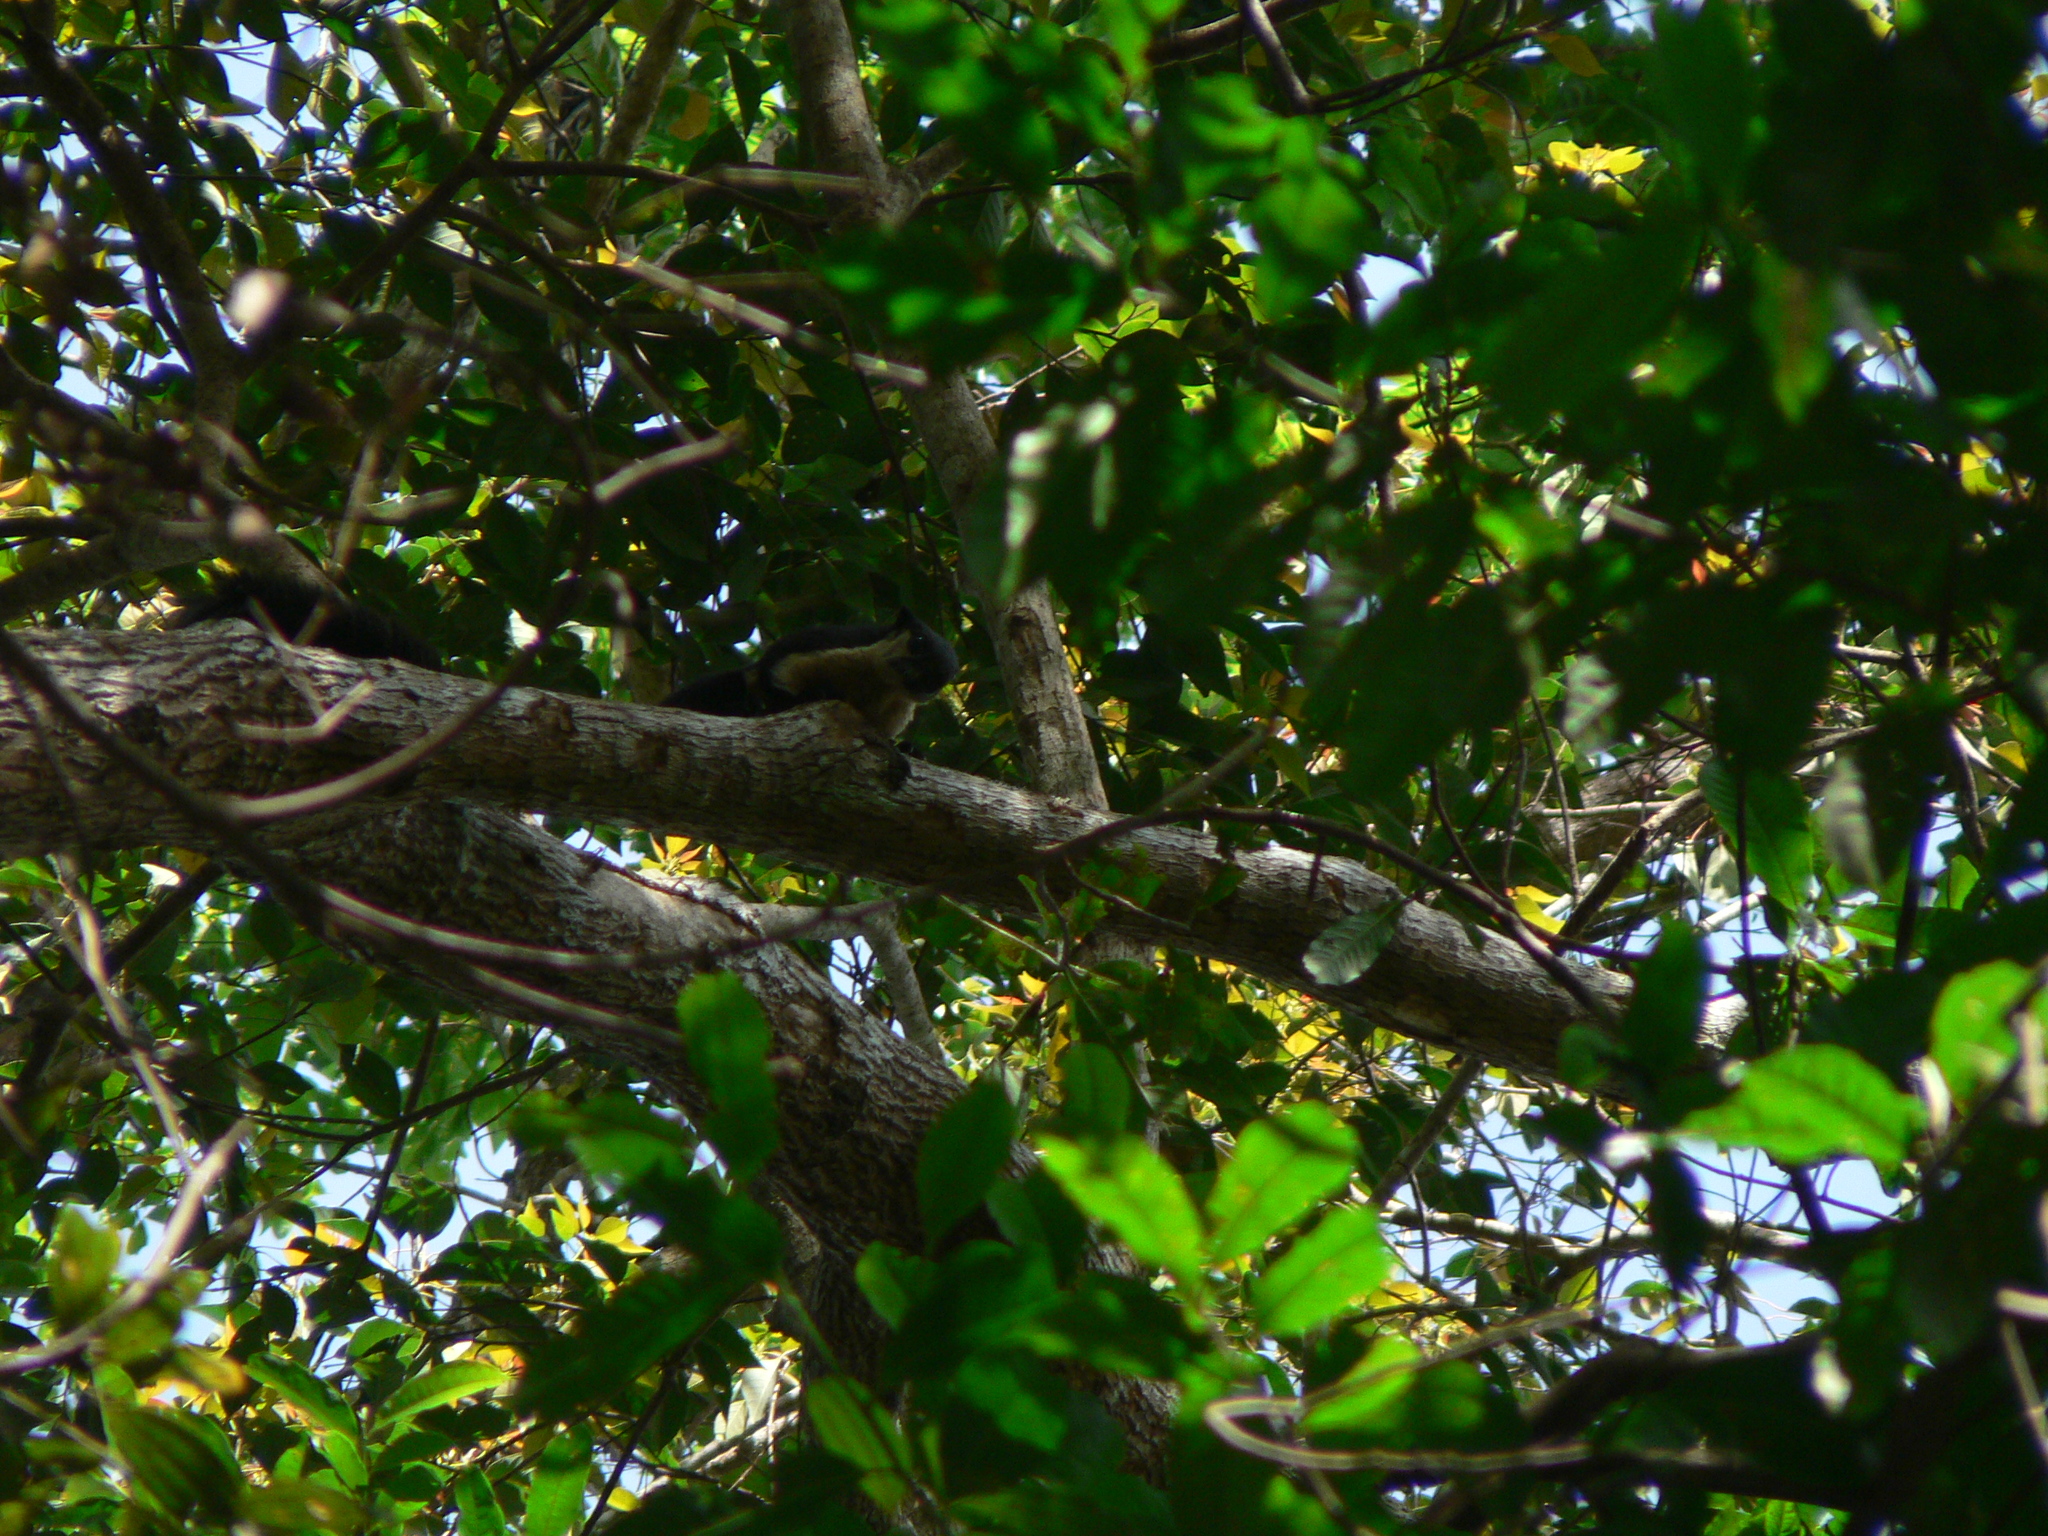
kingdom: Animalia
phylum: Chordata
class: Mammalia
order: Rodentia
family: Sciuridae
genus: Ratufa
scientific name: Ratufa bicolor
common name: Black giant squirrel
